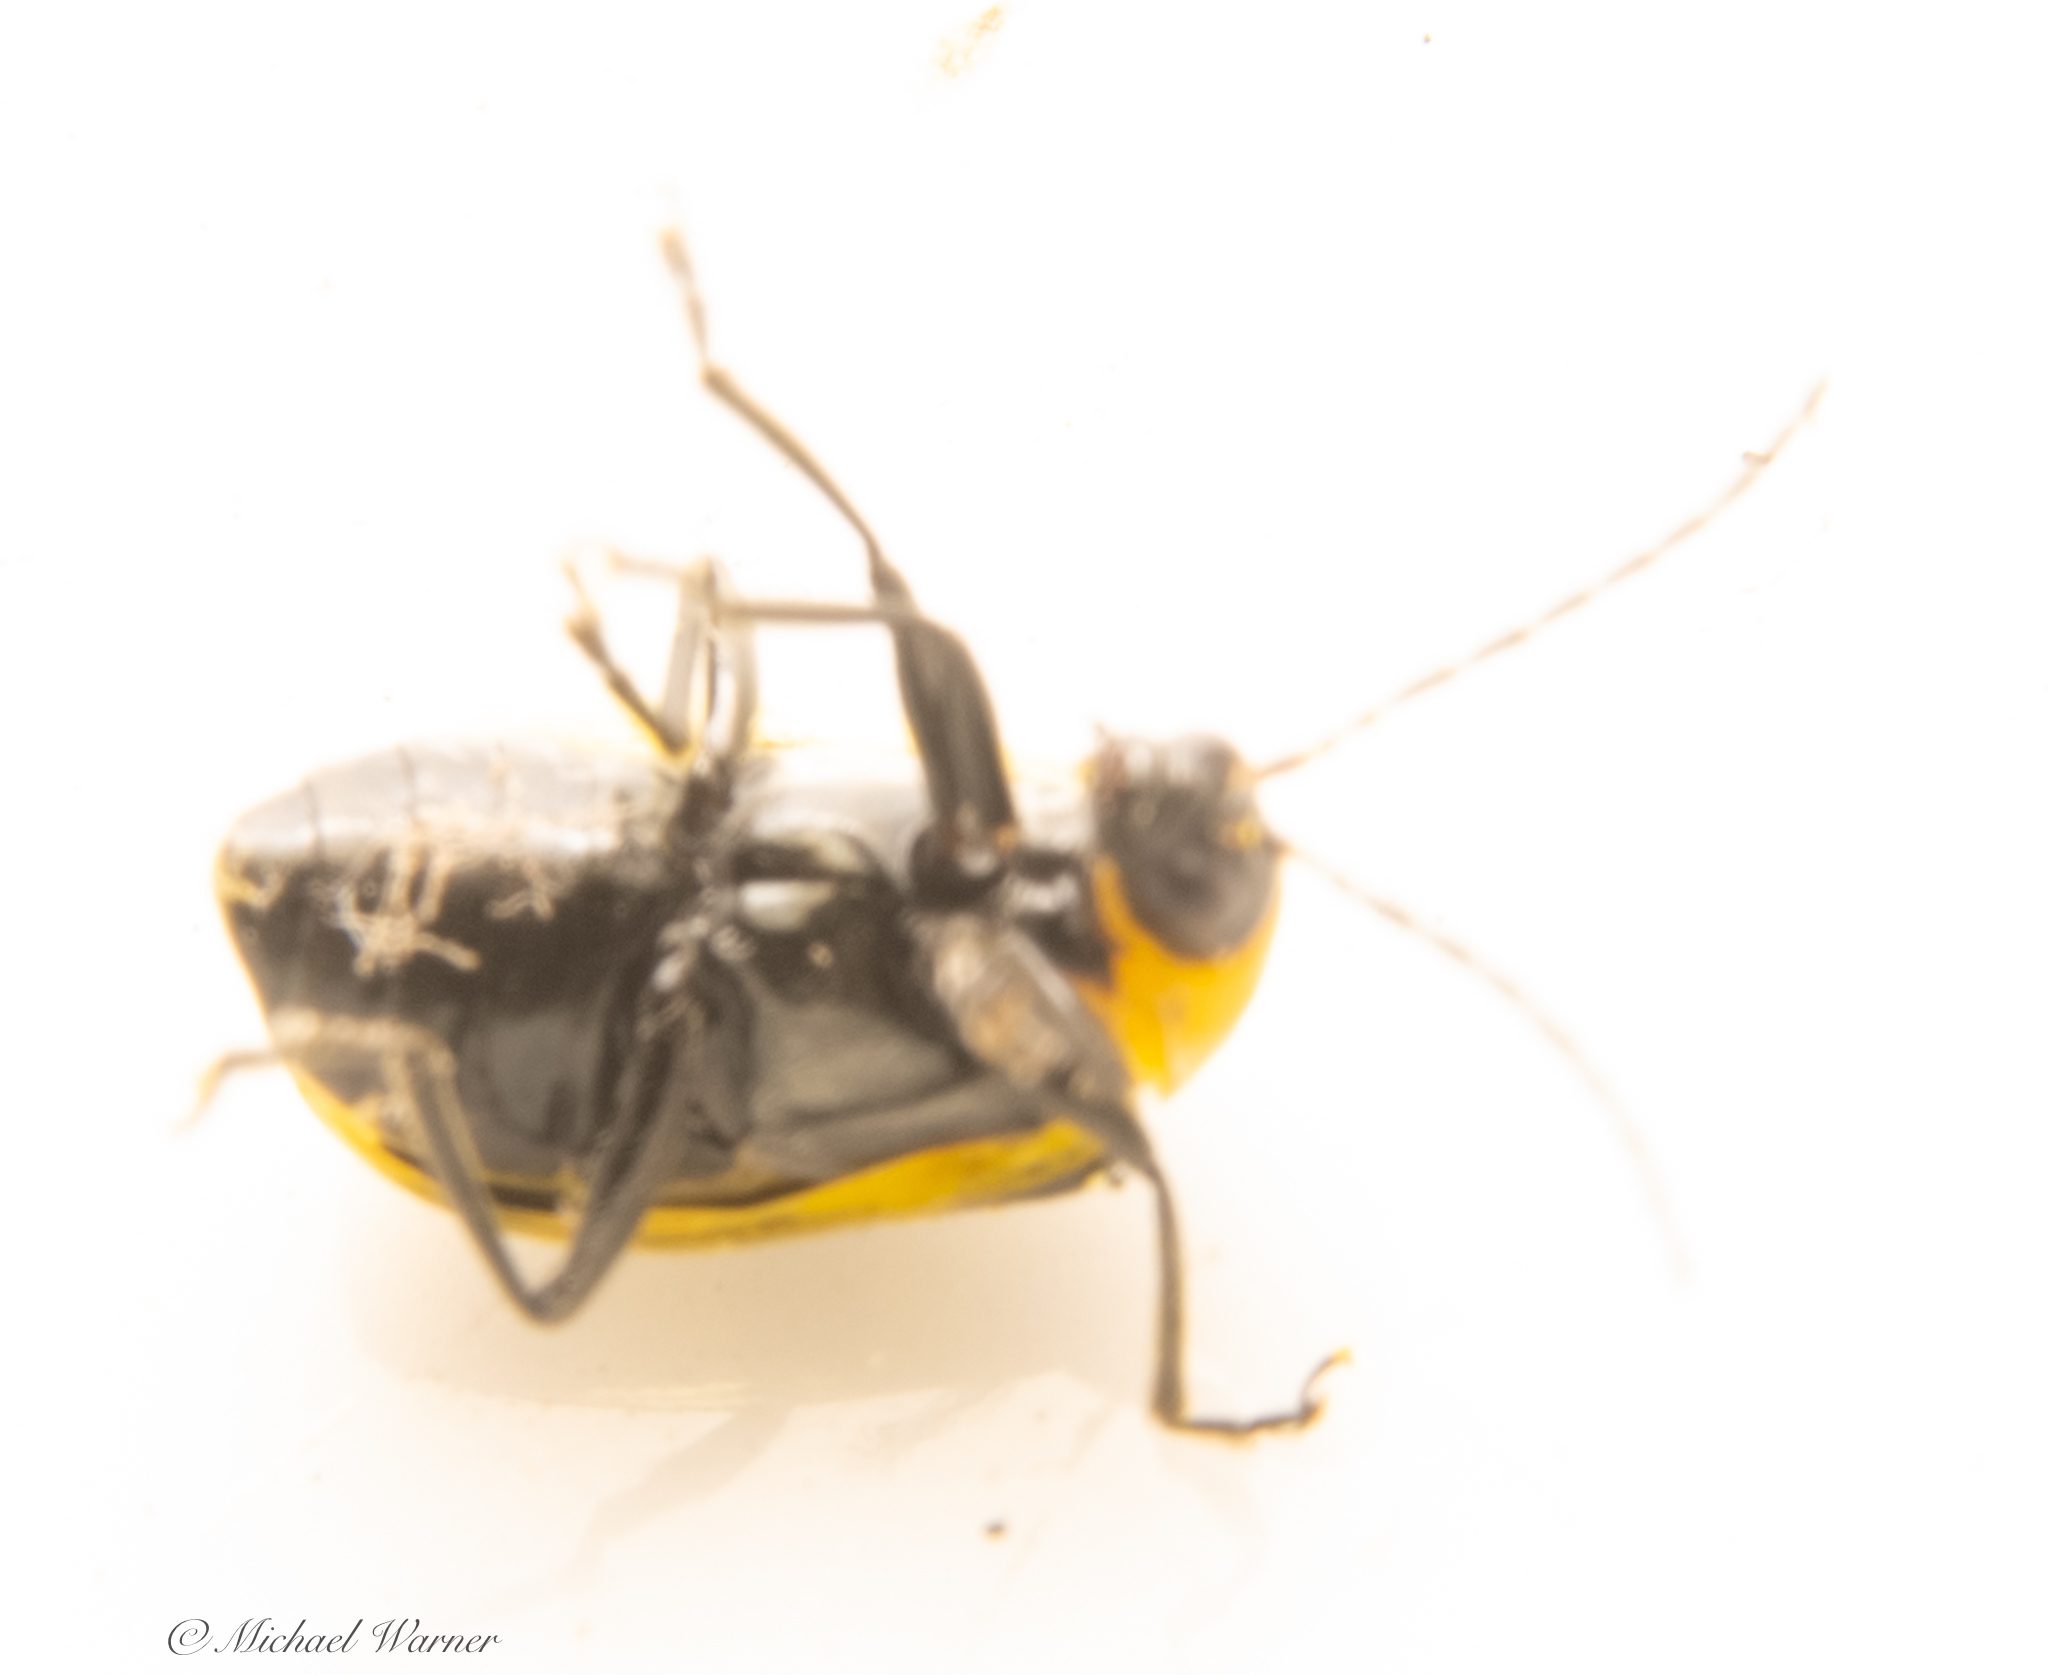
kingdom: Animalia
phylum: Arthropoda
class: Insecta
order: Coleoptera
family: Chrysomelidae
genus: Diabrotica
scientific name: Diabrotica undecimpunctata
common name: Spotted cucumber beetle
